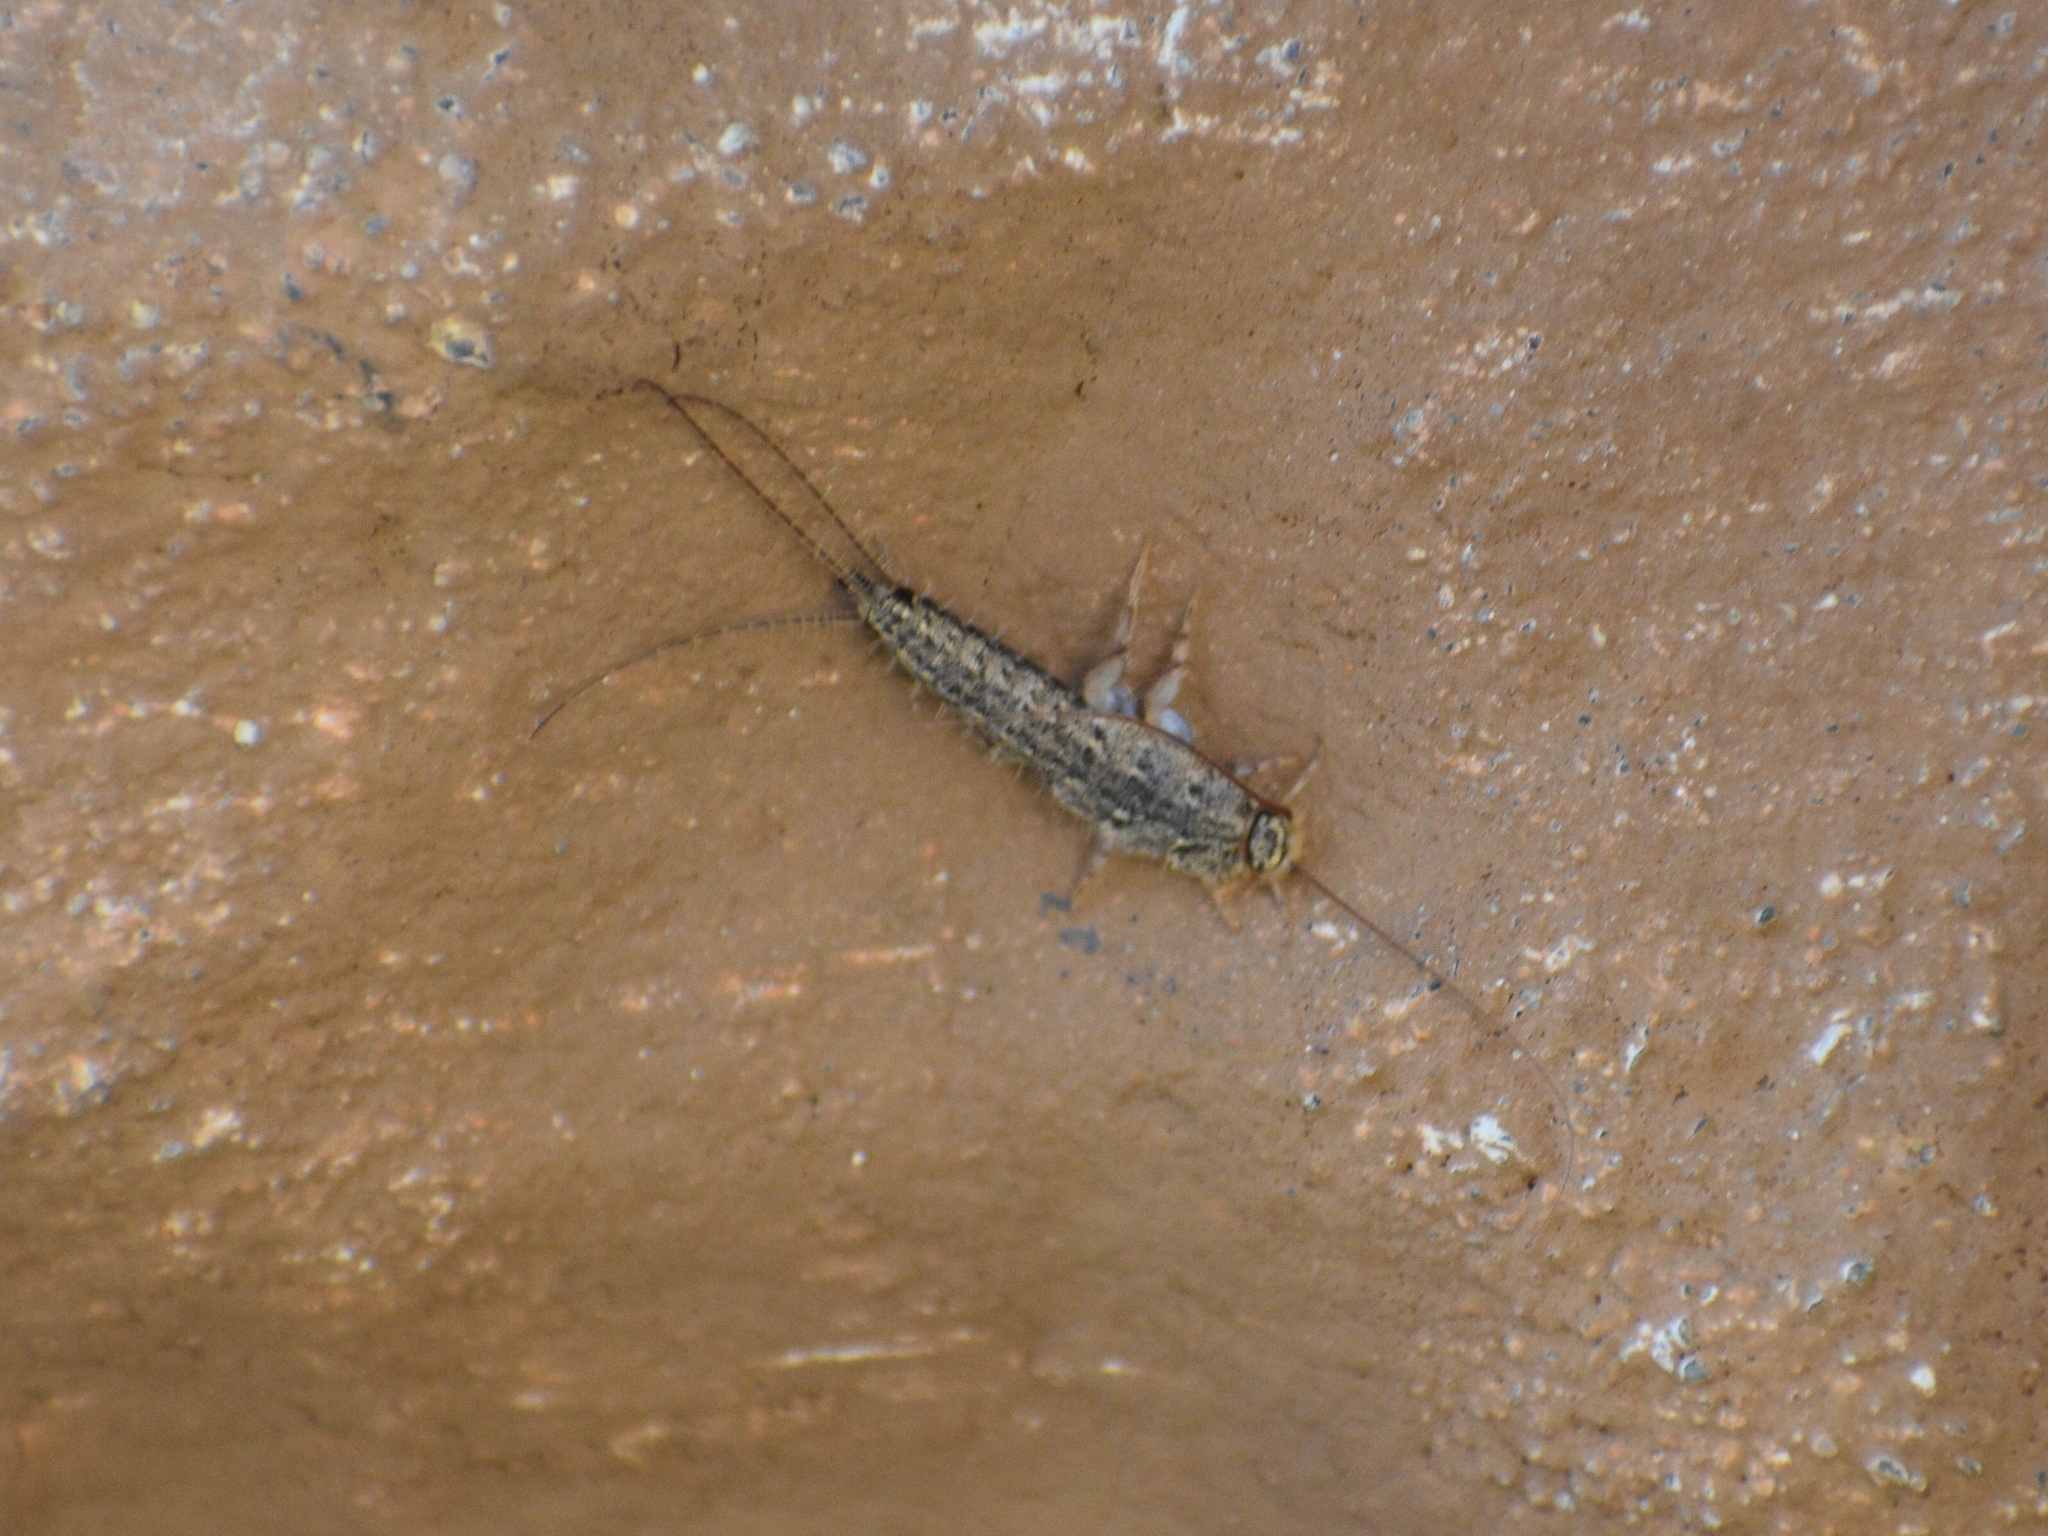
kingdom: Animalia
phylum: Arthropoda
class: Insecta
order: Zygentoma
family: Lepismatidae
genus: Ctenolepisma
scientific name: Ctenolepisma lineata
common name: Four-lined silverfish
